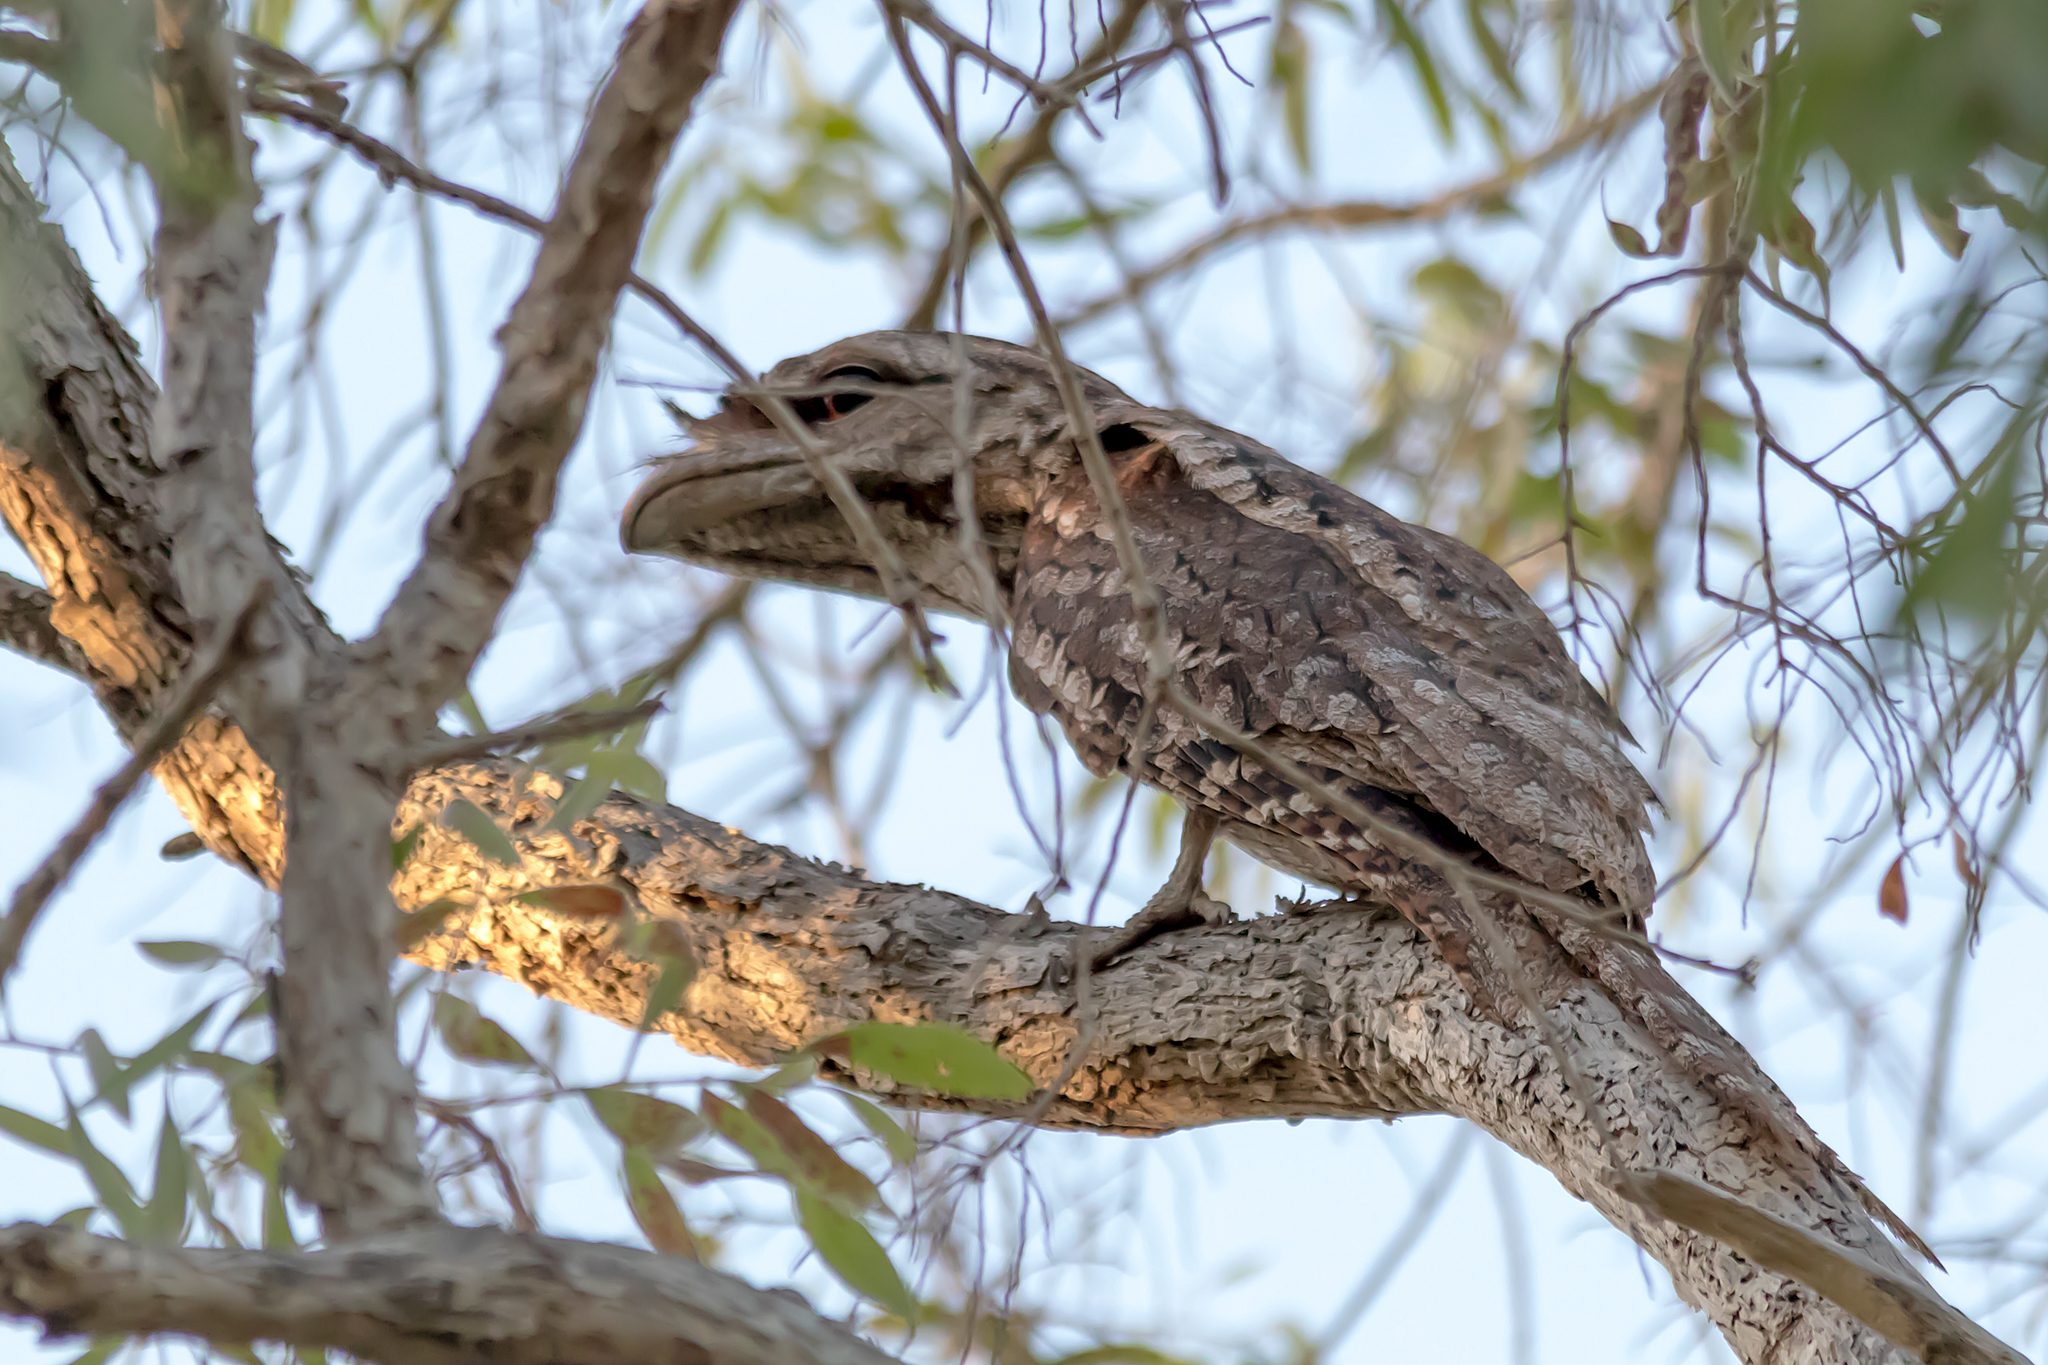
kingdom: Animalia
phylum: Chordata
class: Aves
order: Caprimulgiformes
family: Podargidae
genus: Podargus
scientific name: Podargus papuensis
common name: Papuan frogmouth
